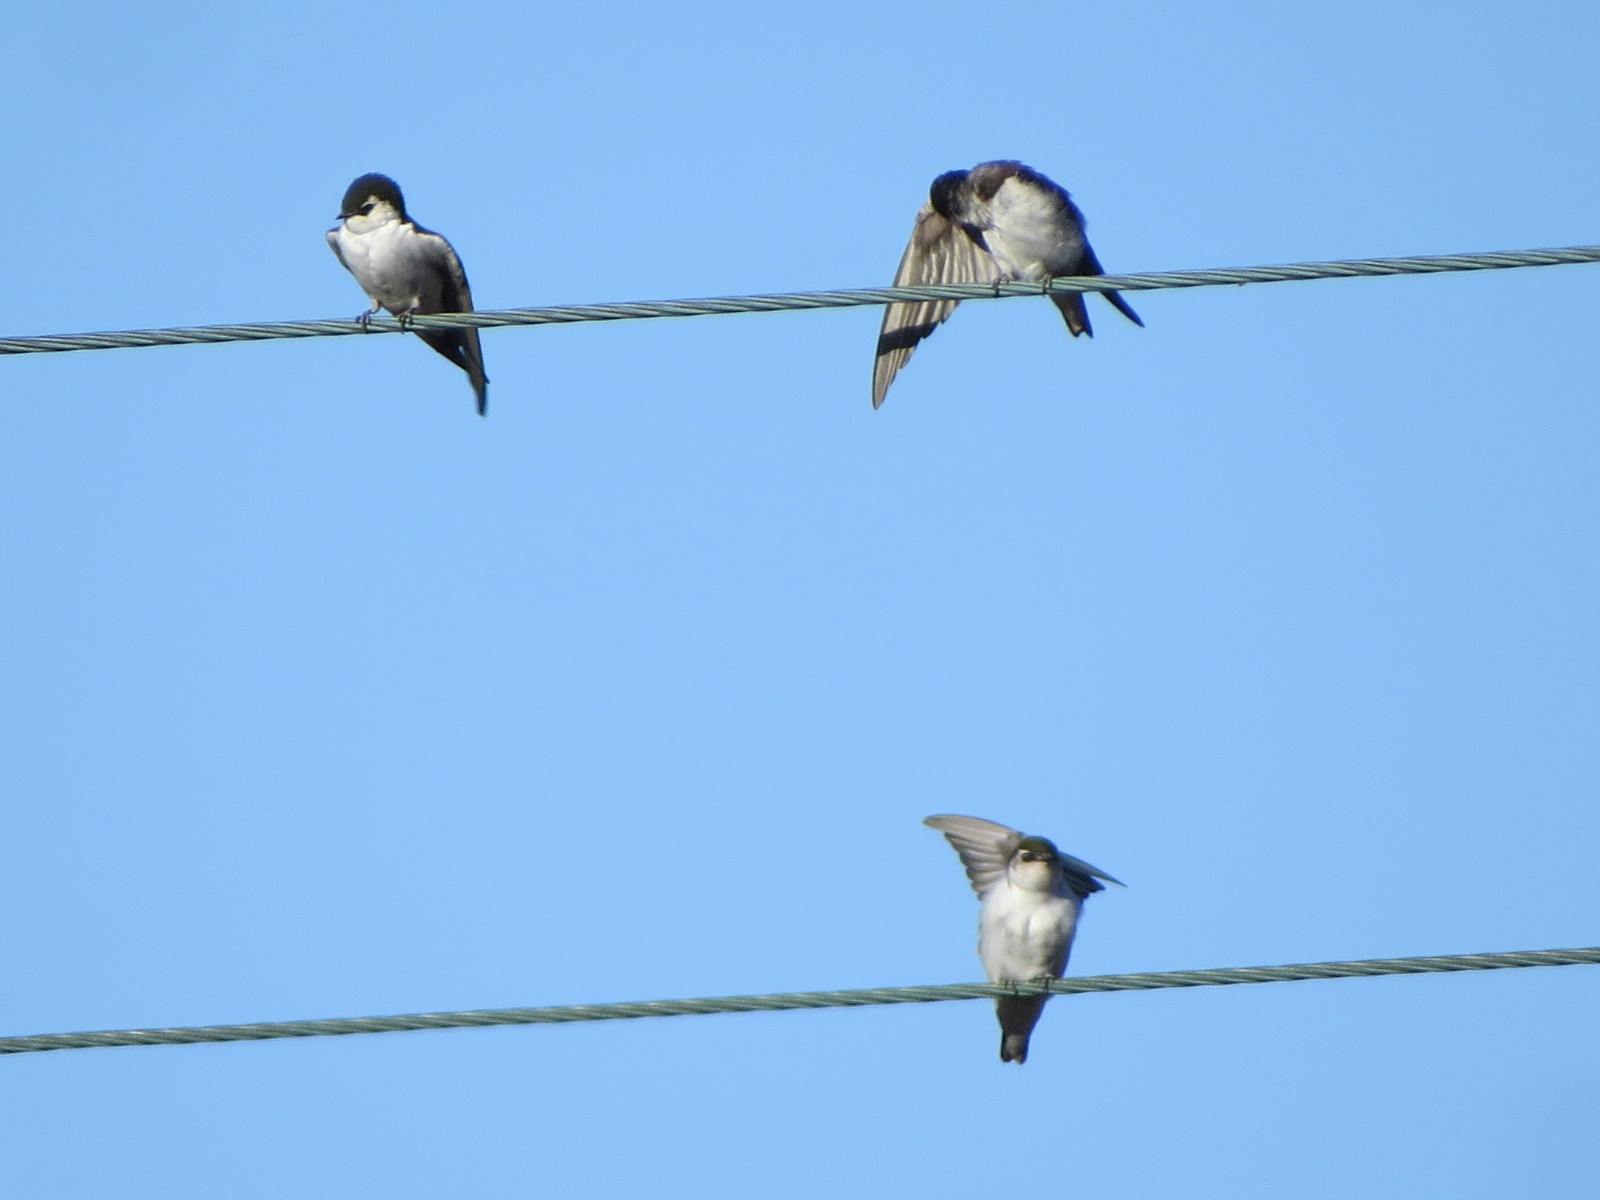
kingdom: Animalia
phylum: Chordata
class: Aves
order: Passeriformes
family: Hirundinidae
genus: Tachycineta
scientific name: Tachycineta thalassina
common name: Violet-green swallow
